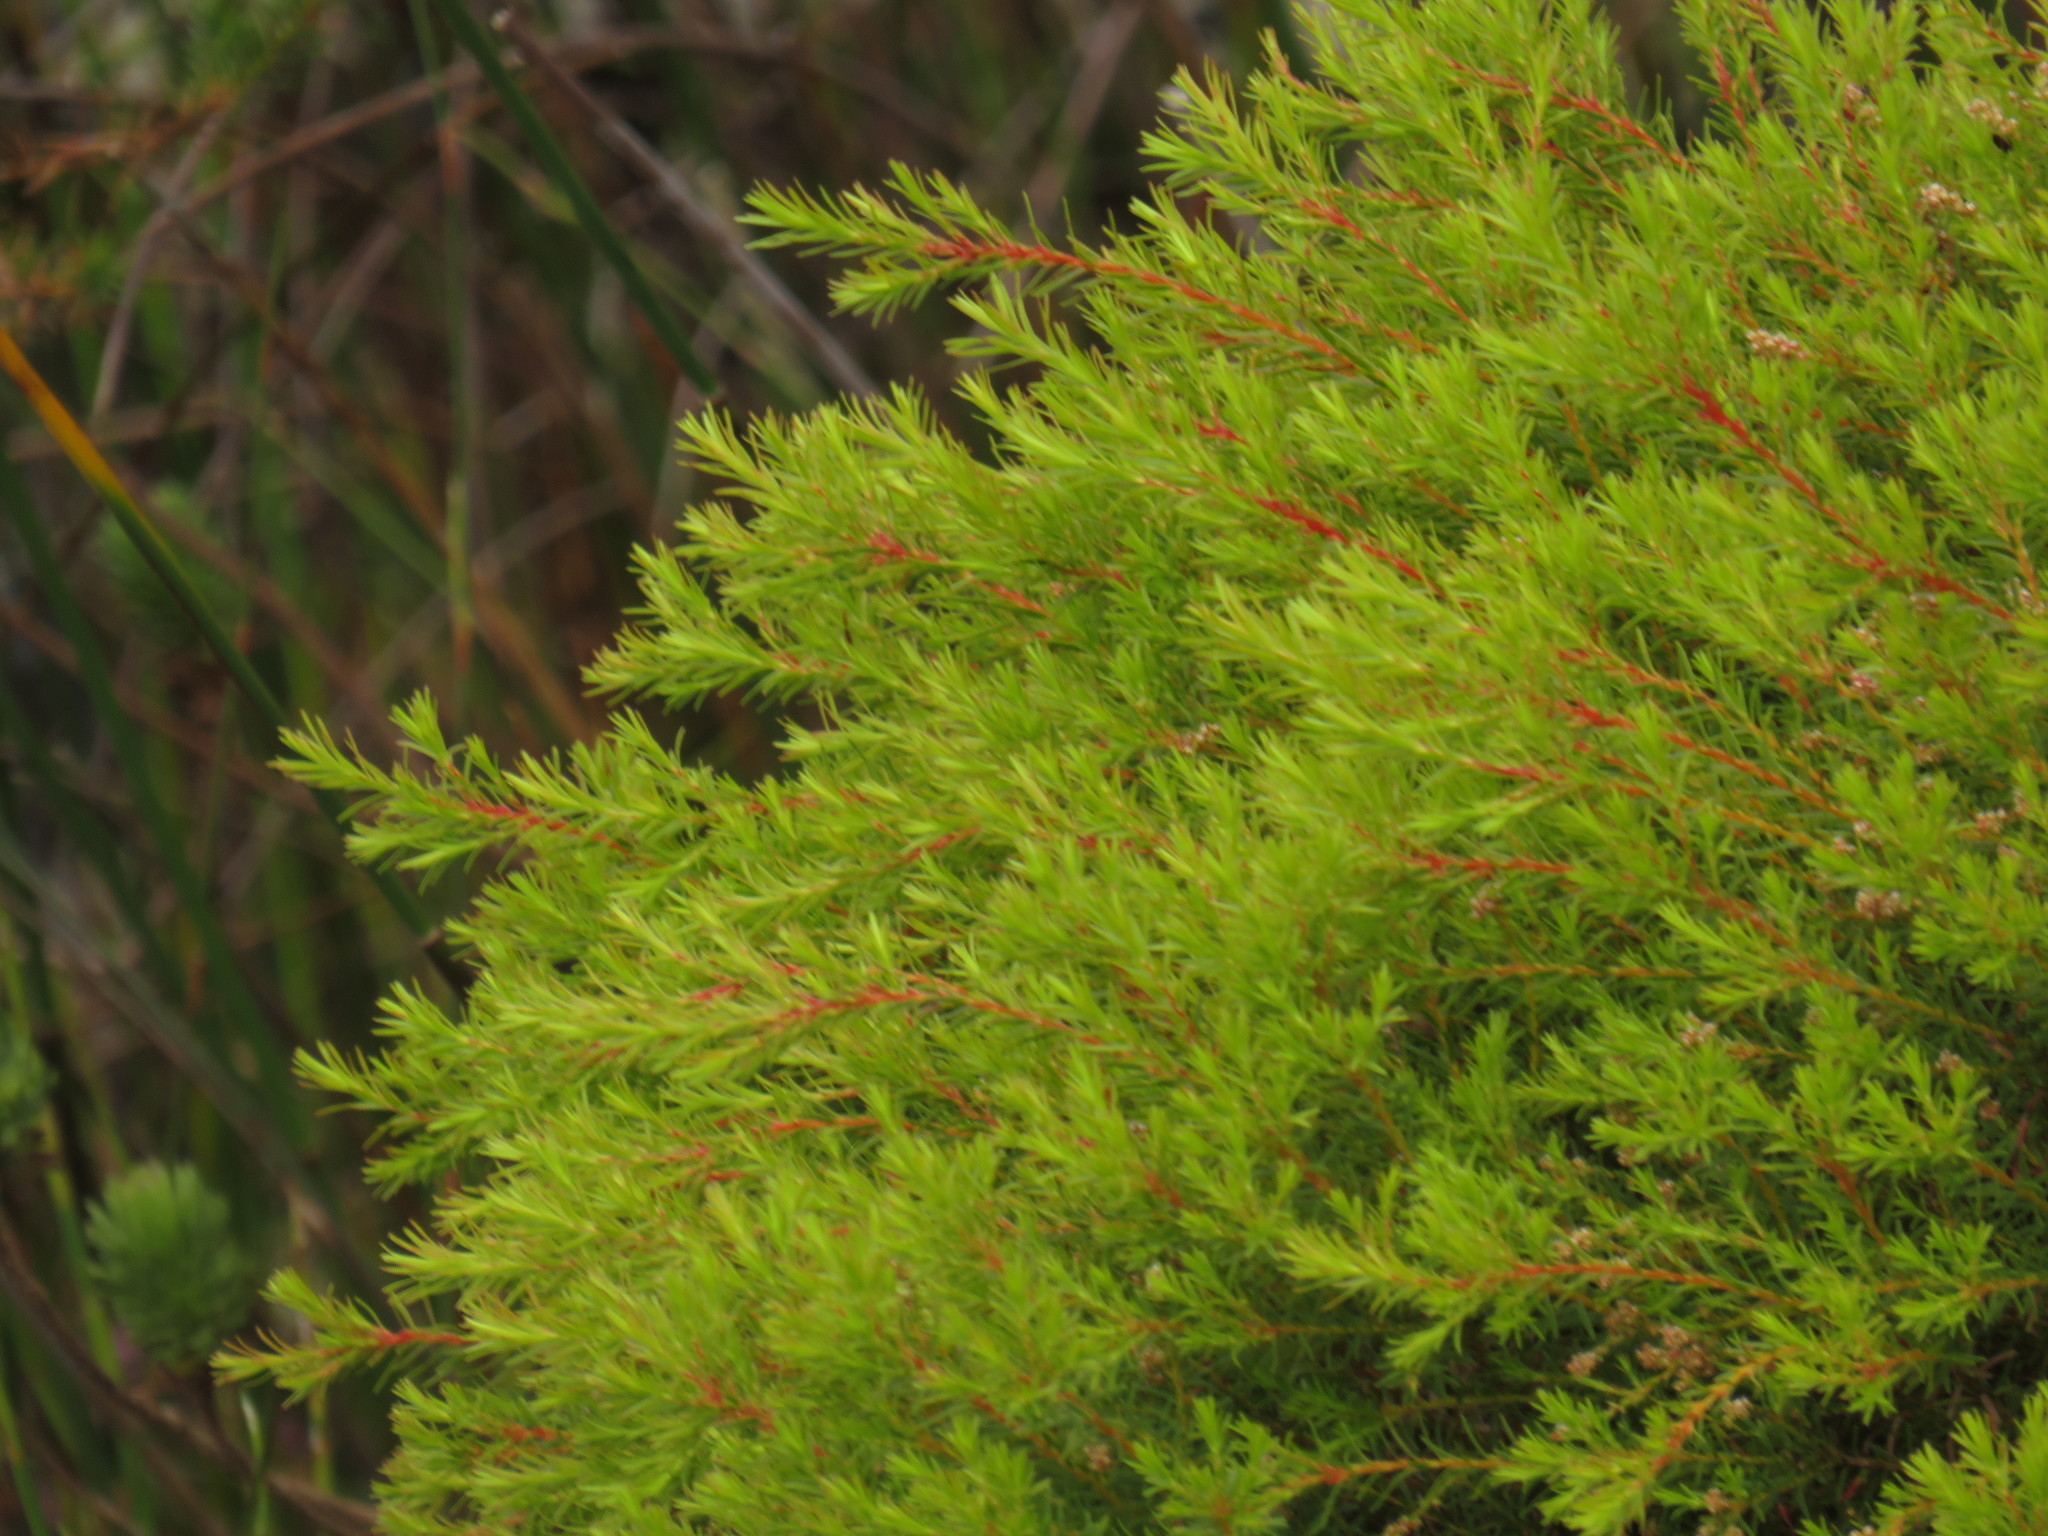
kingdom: Plantae
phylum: Tracheophyta
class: Magnoliopsida
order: Bruniales
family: Bruniaceae
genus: Brunia
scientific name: Brunia africana
